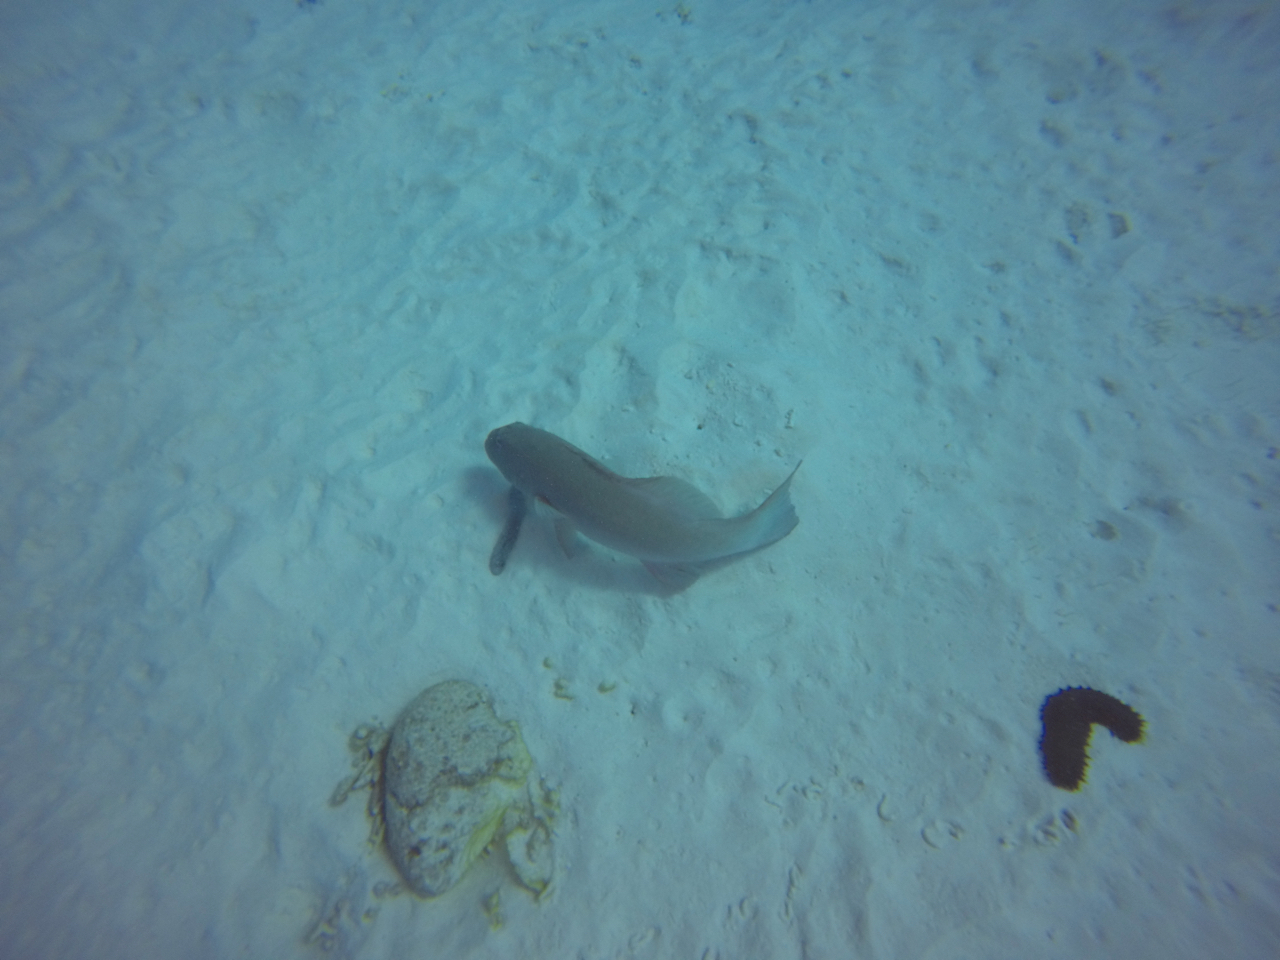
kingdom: Animalia
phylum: Chordata
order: Perciformes
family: Serranidae
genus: Plectropomus
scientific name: Plectropomus leopardus
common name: Coral trout
